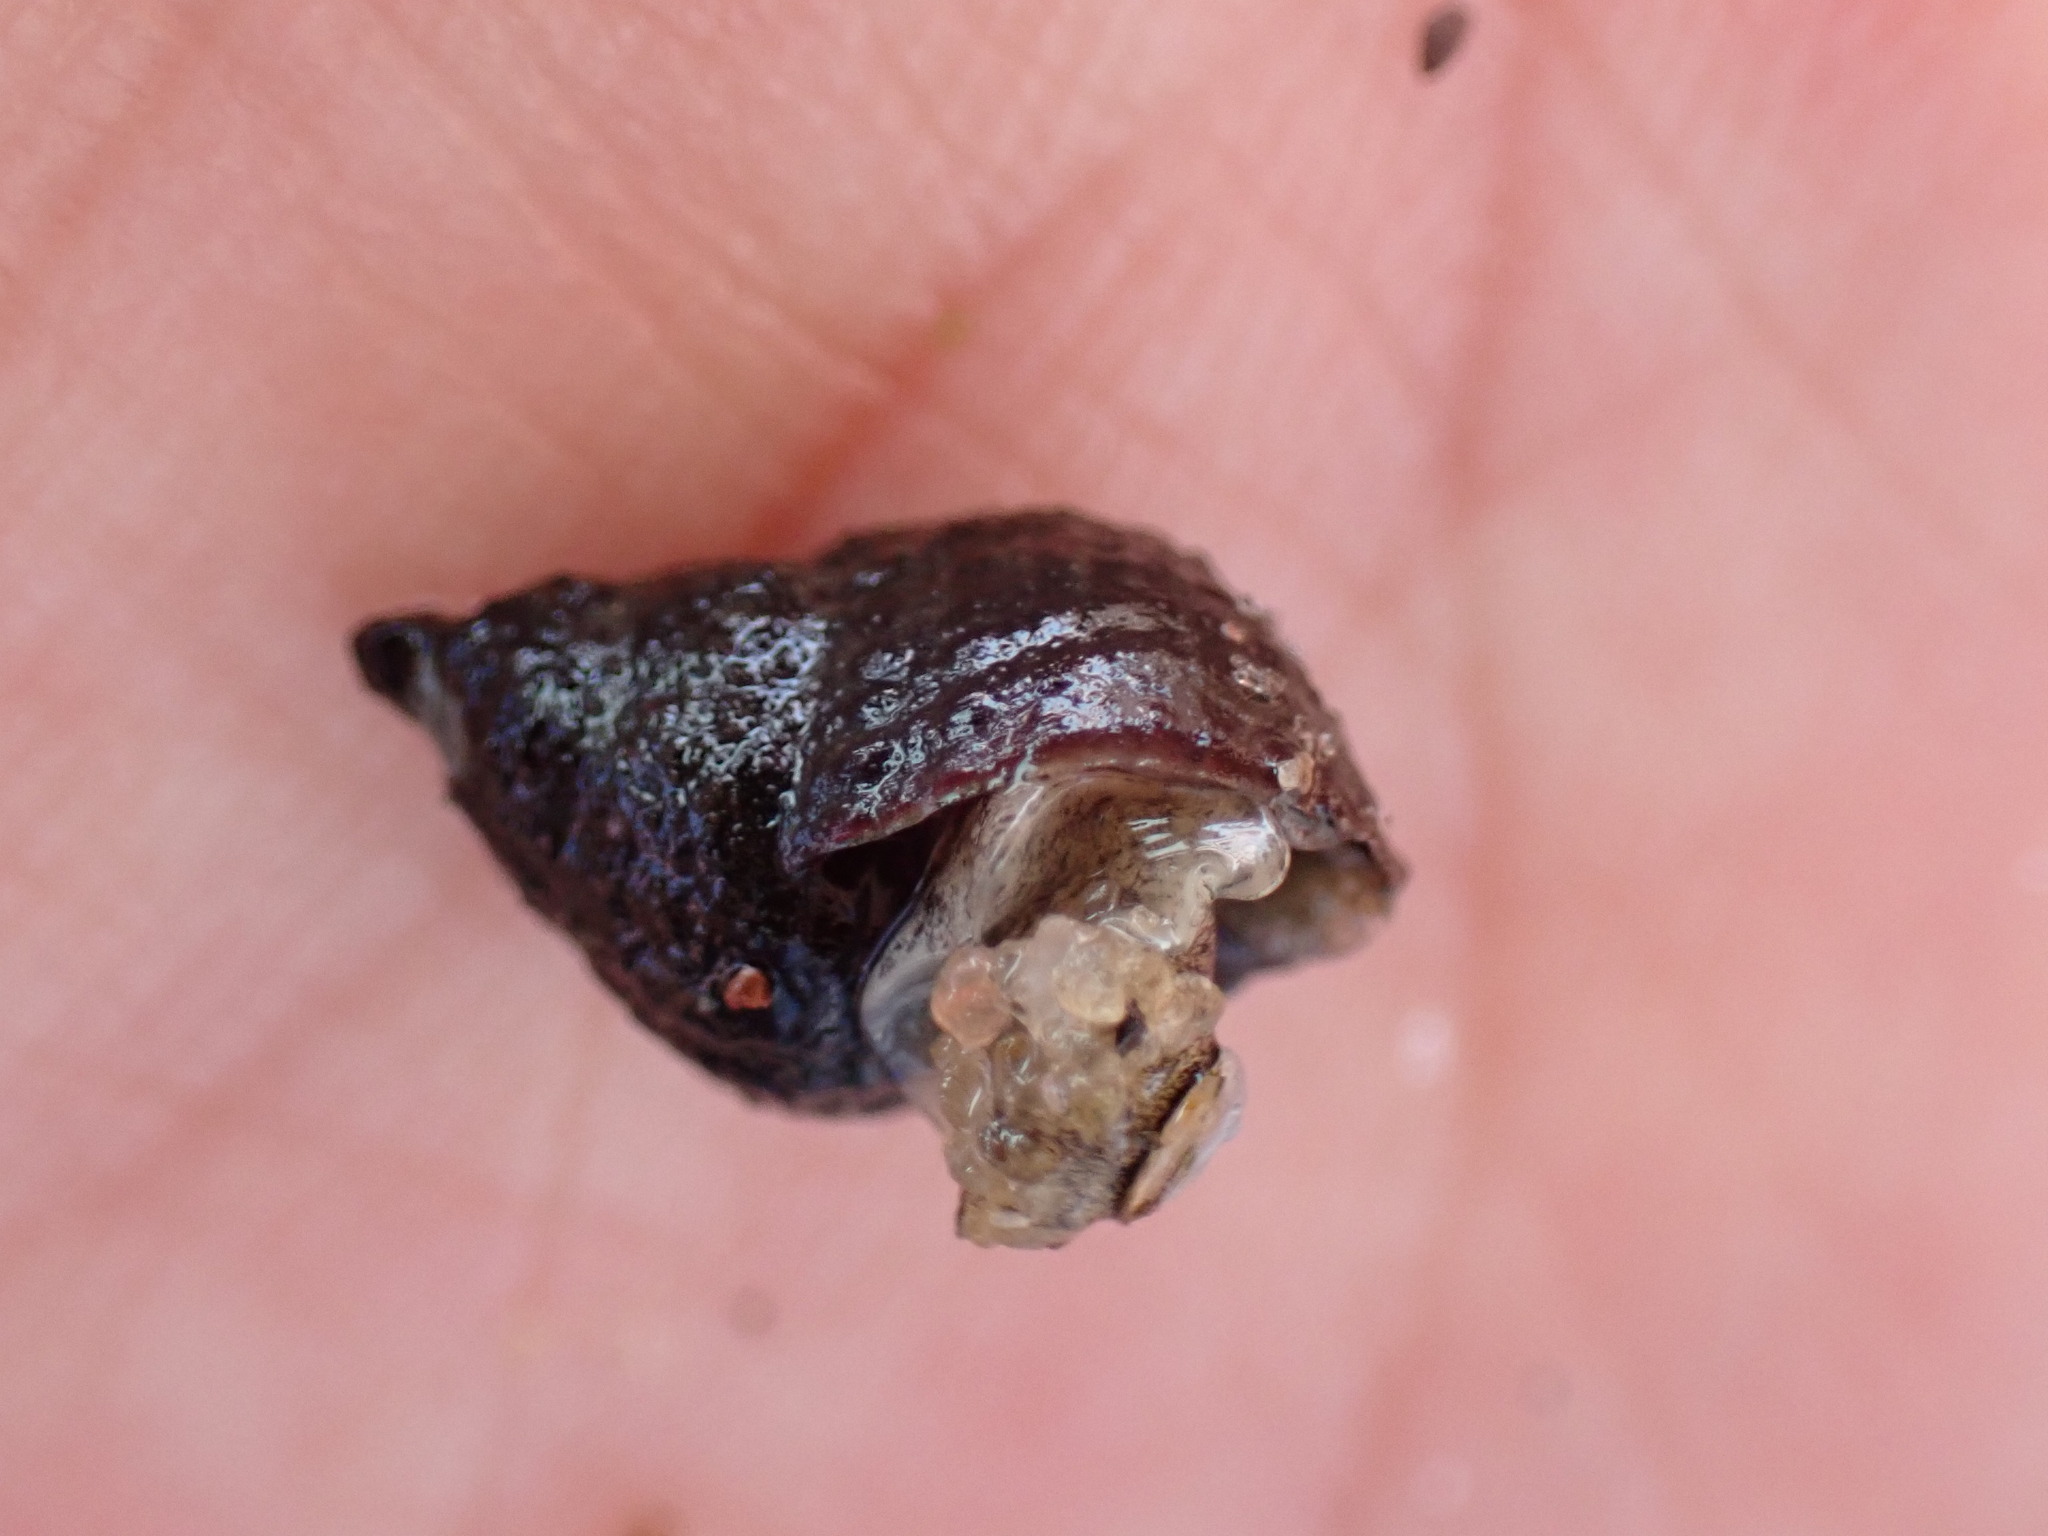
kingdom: Animalia
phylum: Mollusca
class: Gastropoda
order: Neogastropoda
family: Nassariidae
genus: Ilyanassa
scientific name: Ilyanassa obsoleta
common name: Eastern mudsnail
